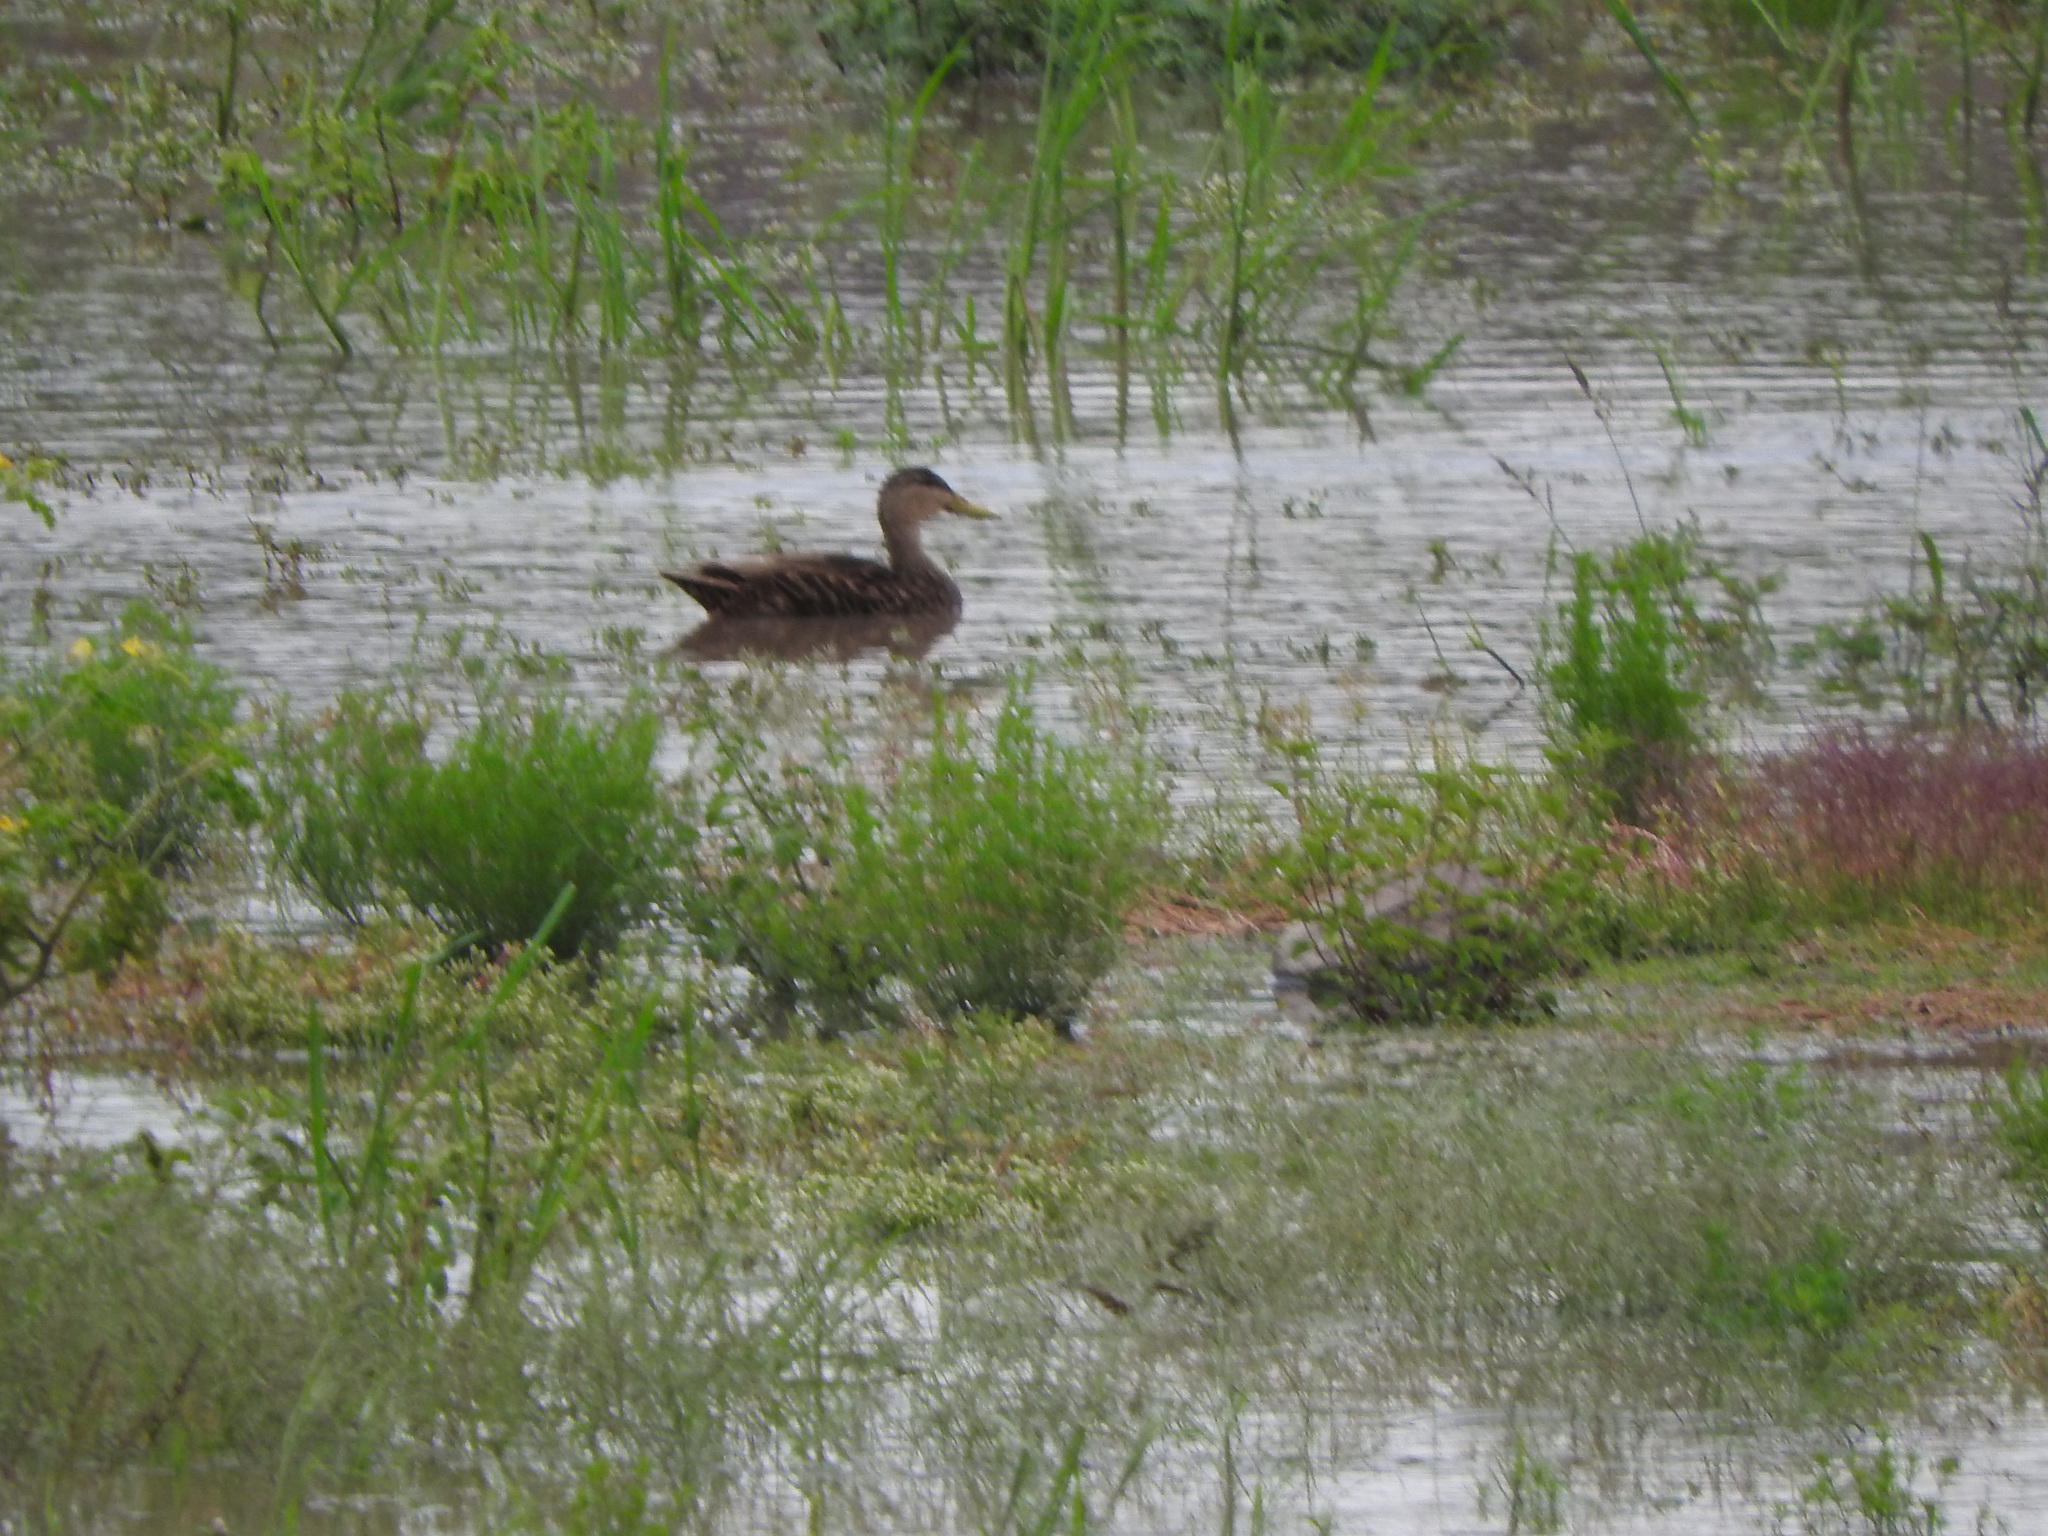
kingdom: Animalia
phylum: Chordata
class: Aves
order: Anseriformes
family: Anatidae
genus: Anas
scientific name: Anas diazi
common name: Mexican duck
